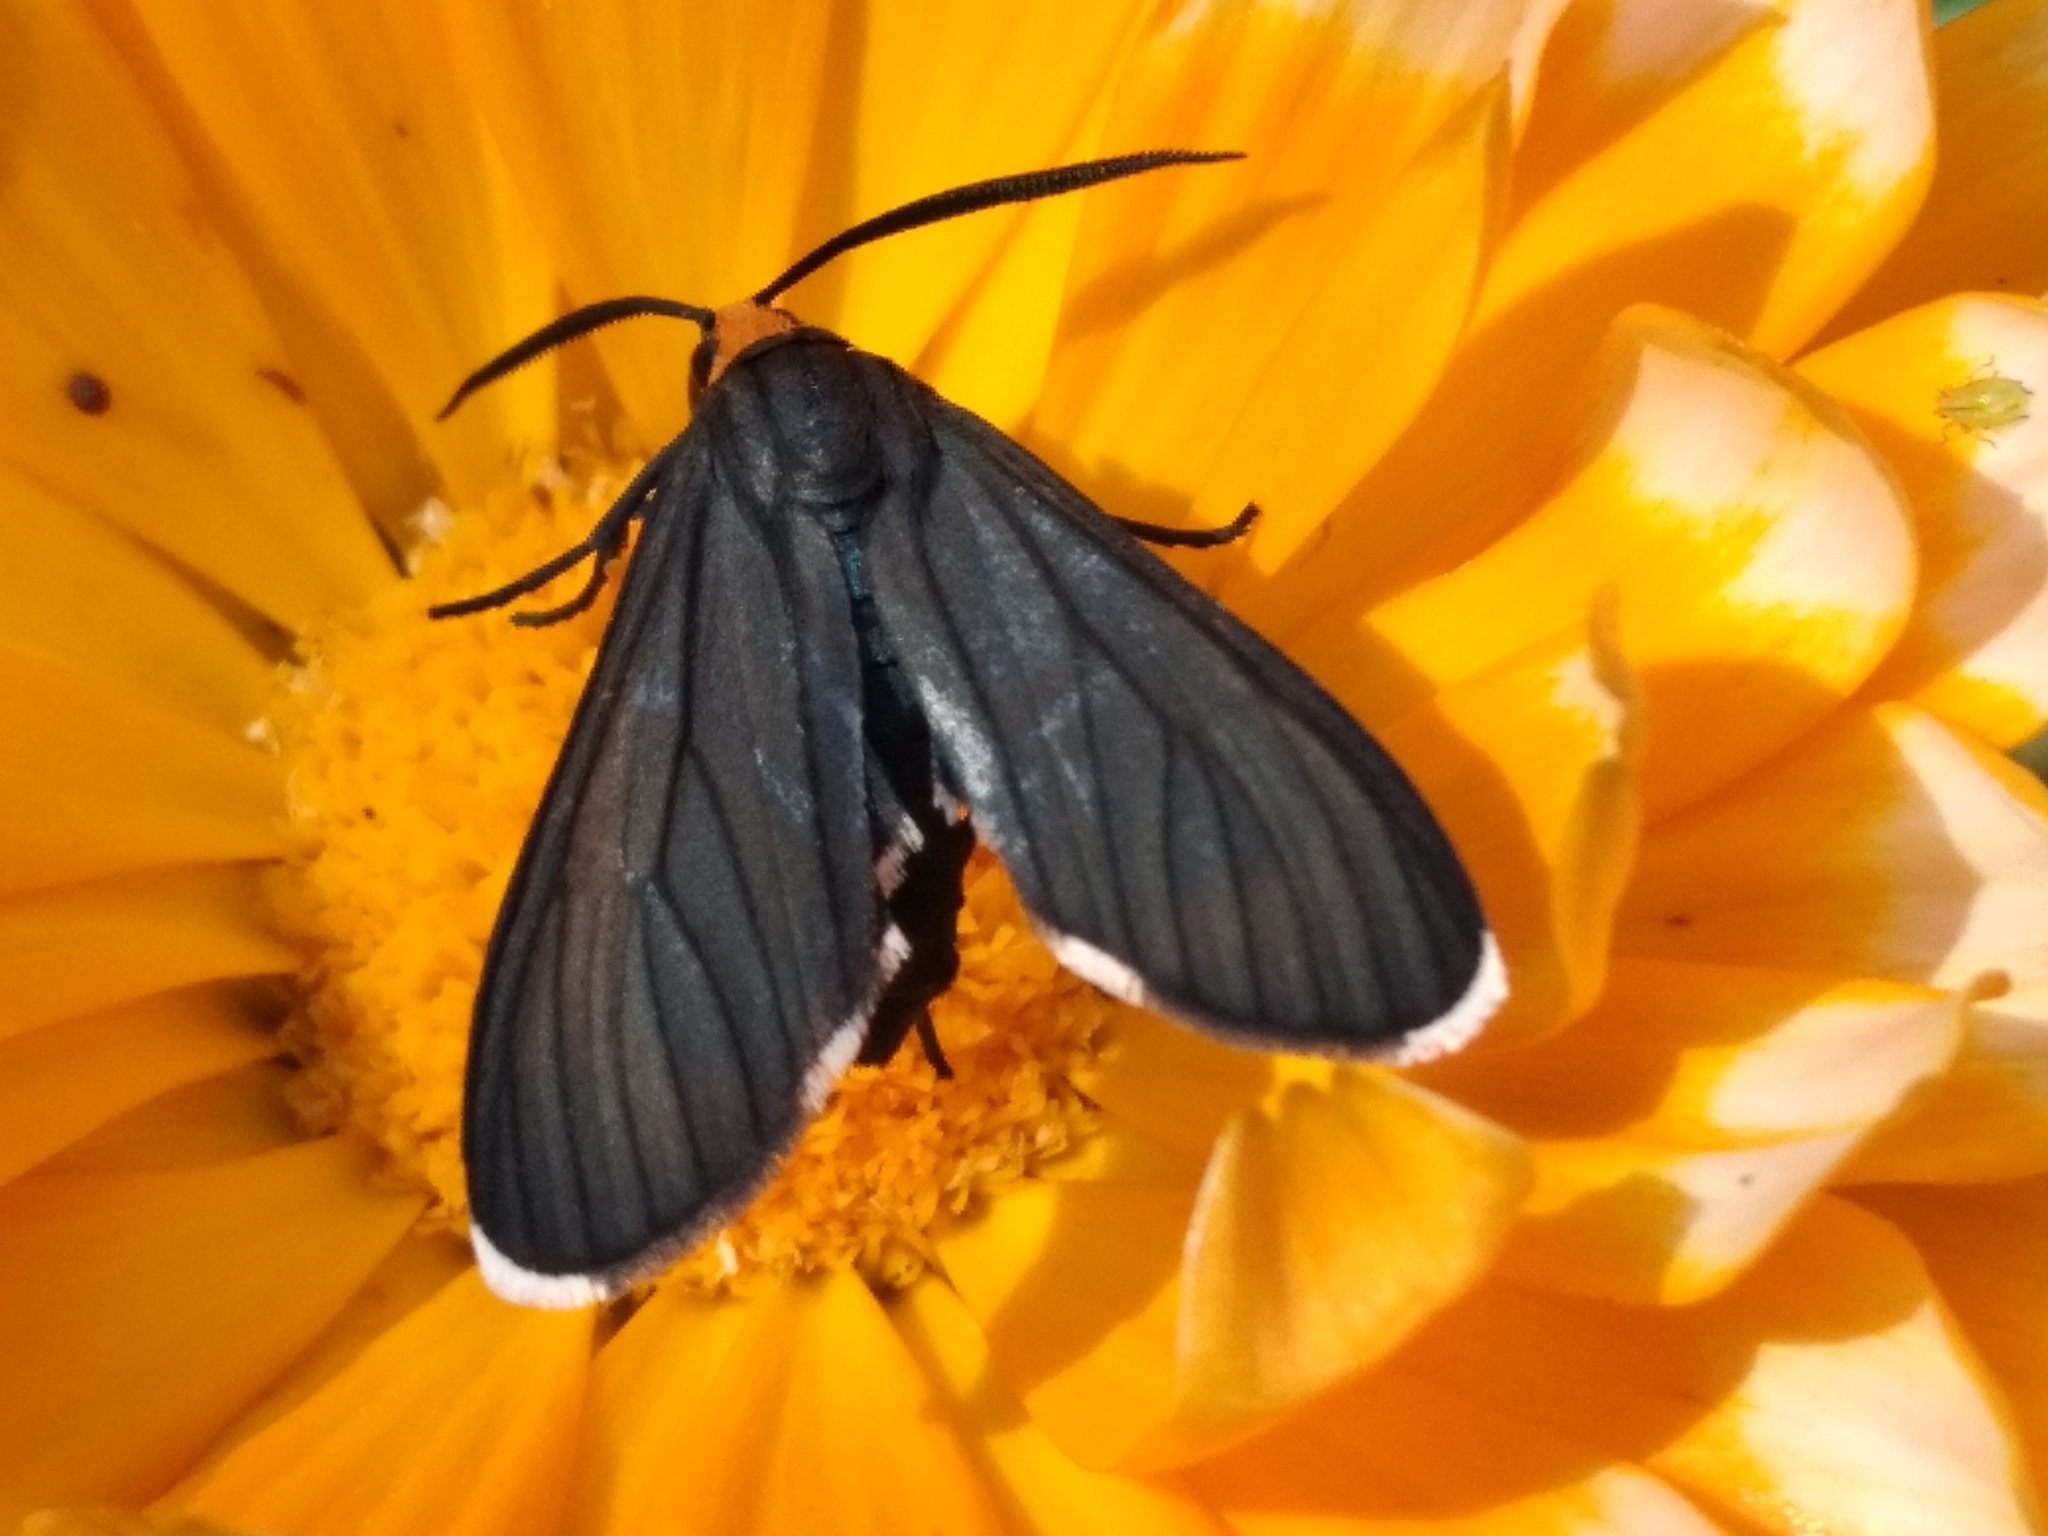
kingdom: Animalia
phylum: Arthropoda
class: Insecta
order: Lepidoptera
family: Erebidae
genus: Ctenucha
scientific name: Ctenucha rubriceps
